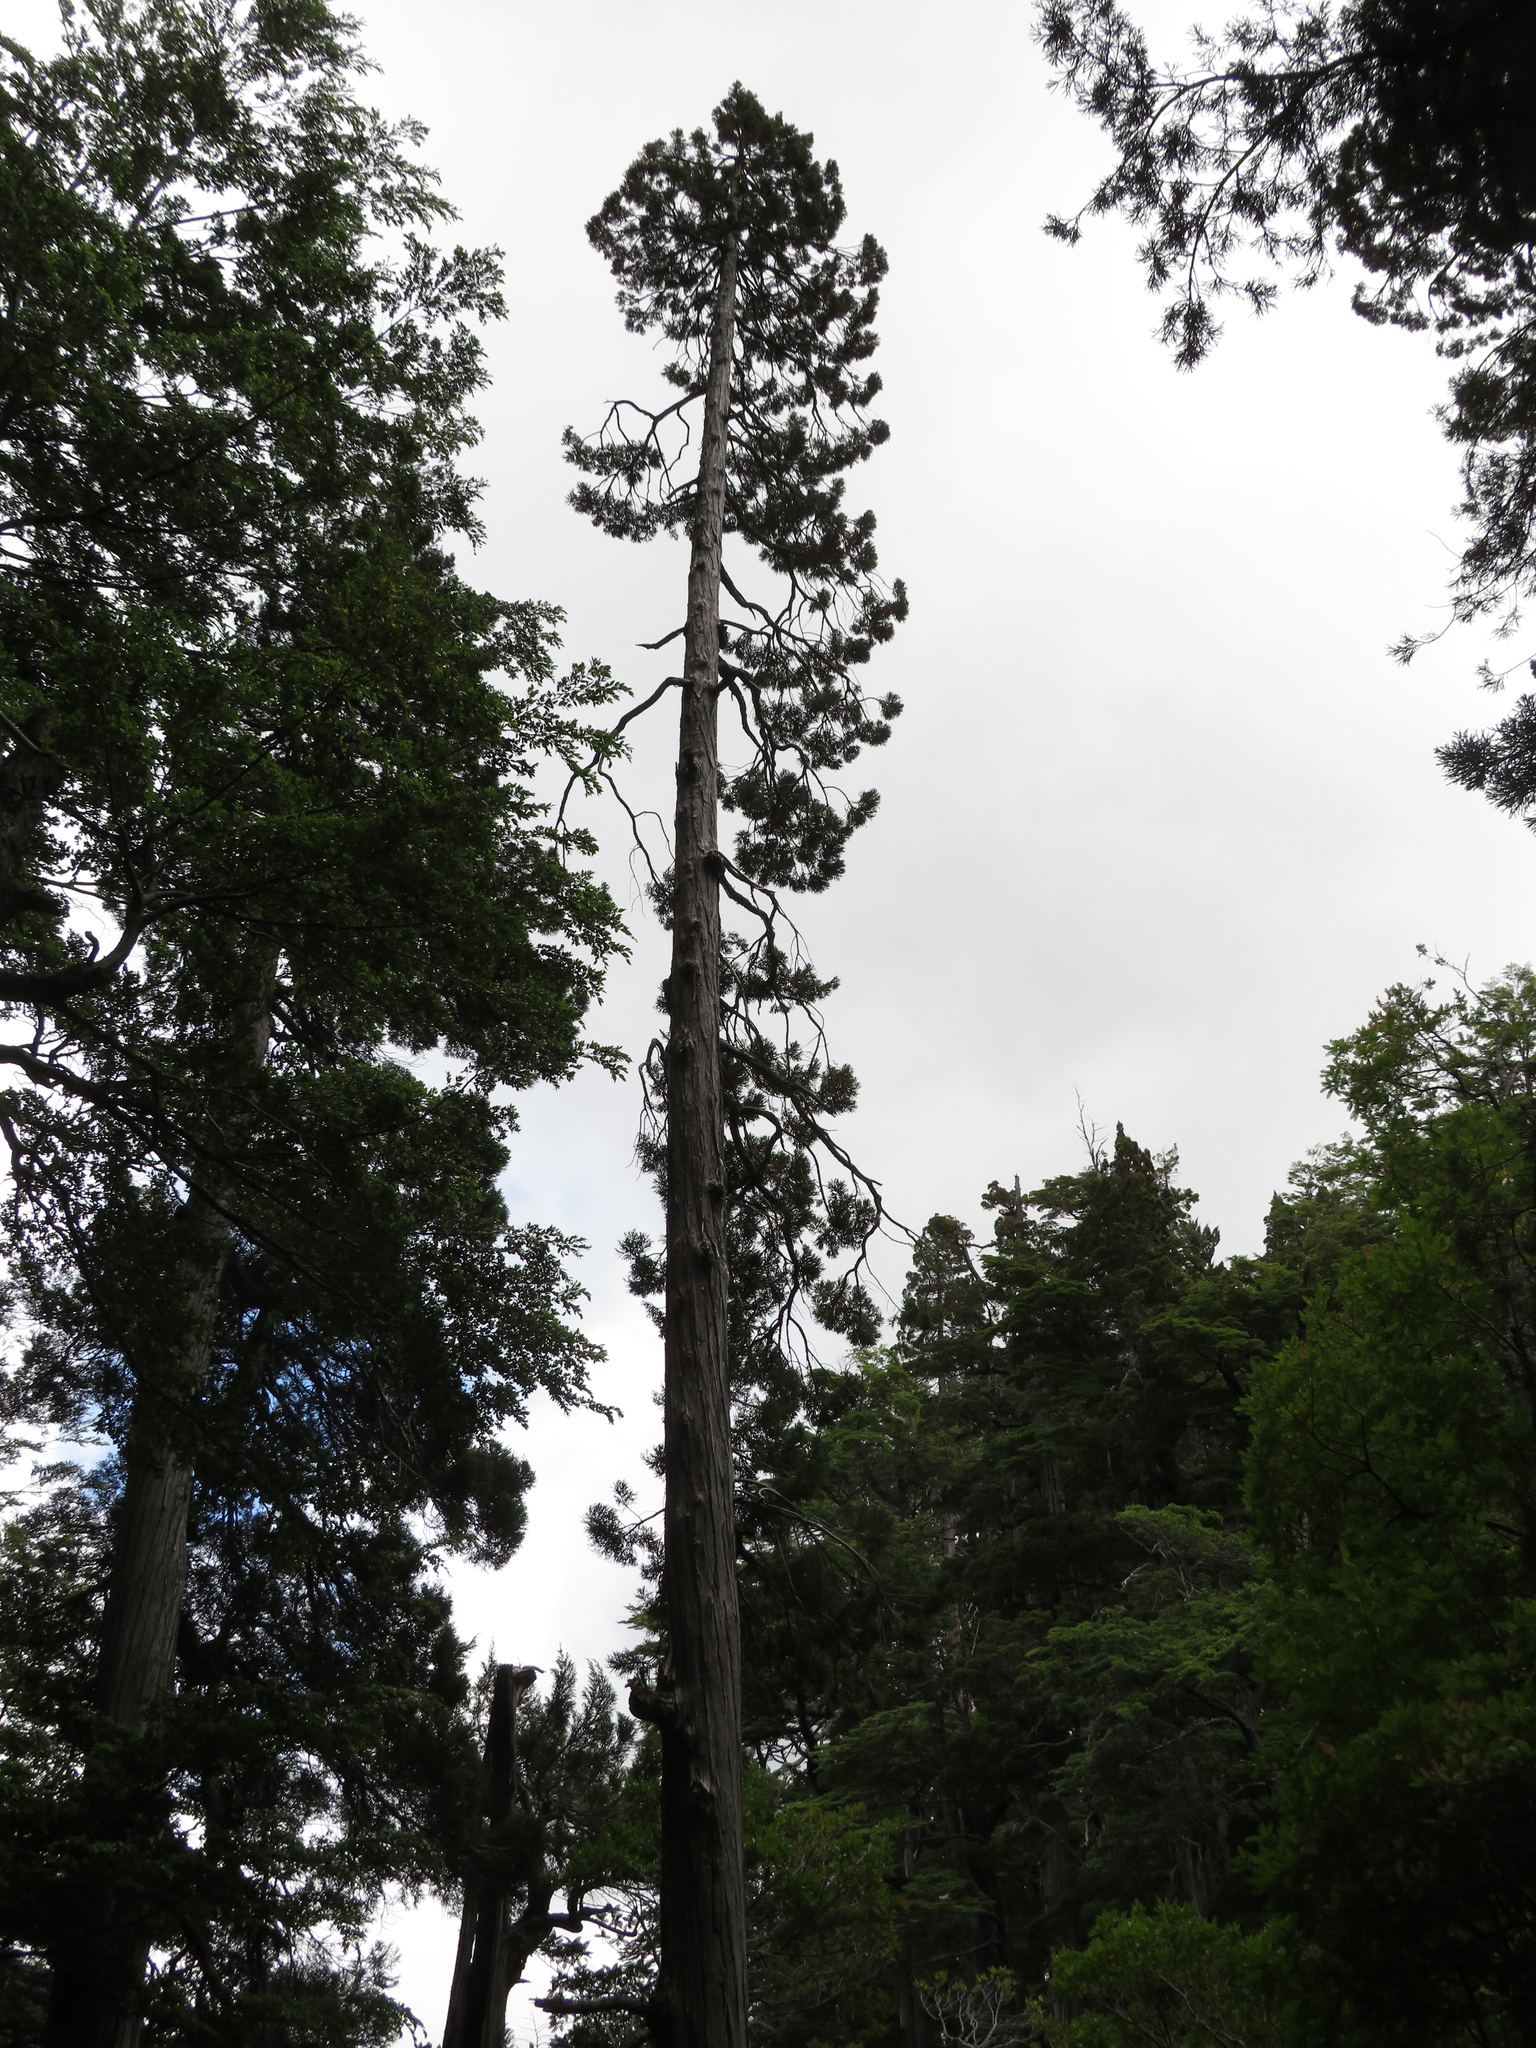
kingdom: Plantae
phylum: Tracheophyta
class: Pinopsida
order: Pinales
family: Cupressaceae
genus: Fitzroya
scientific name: Fitzroya cupressoides
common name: Patagonian cypress
